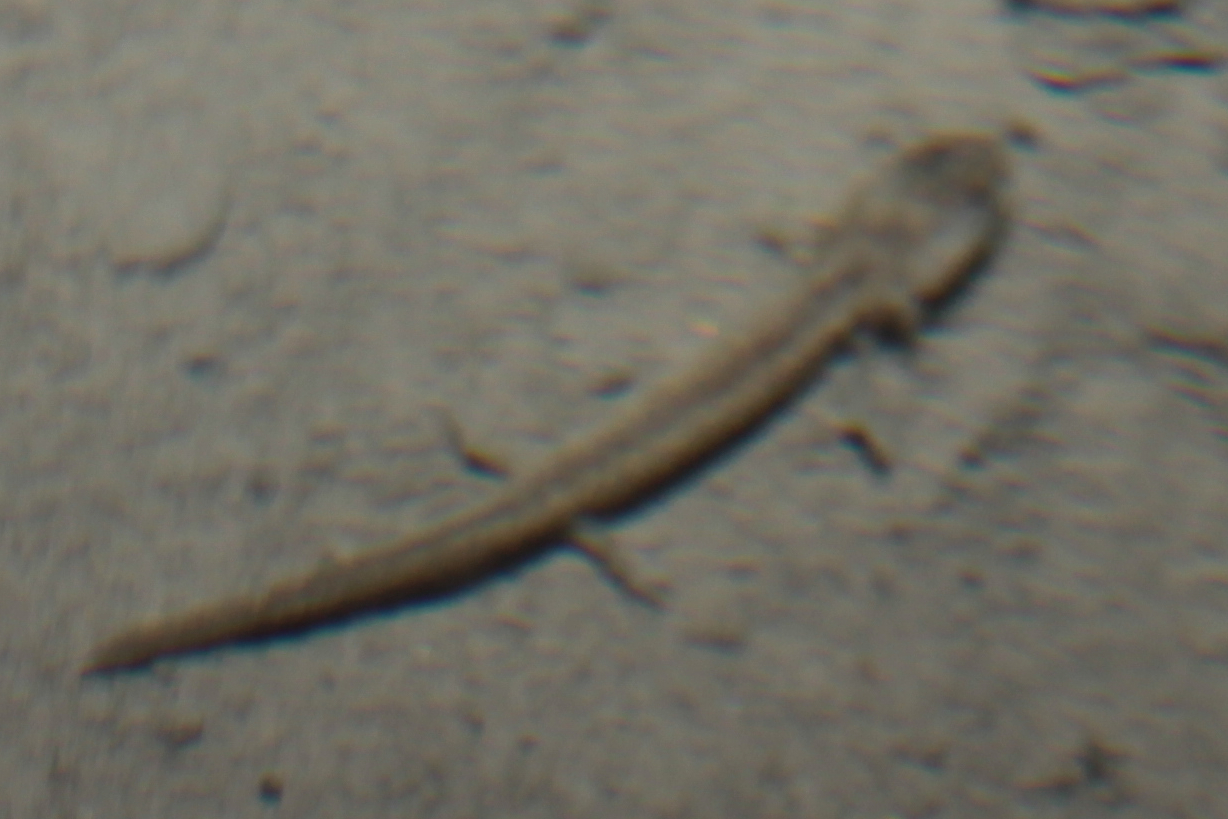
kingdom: Animalia
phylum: Chordata
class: Amphibia
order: Caudata
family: Plethodontidae
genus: Eurycea
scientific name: Eurycea longicauda
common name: Long-tailed salamander
